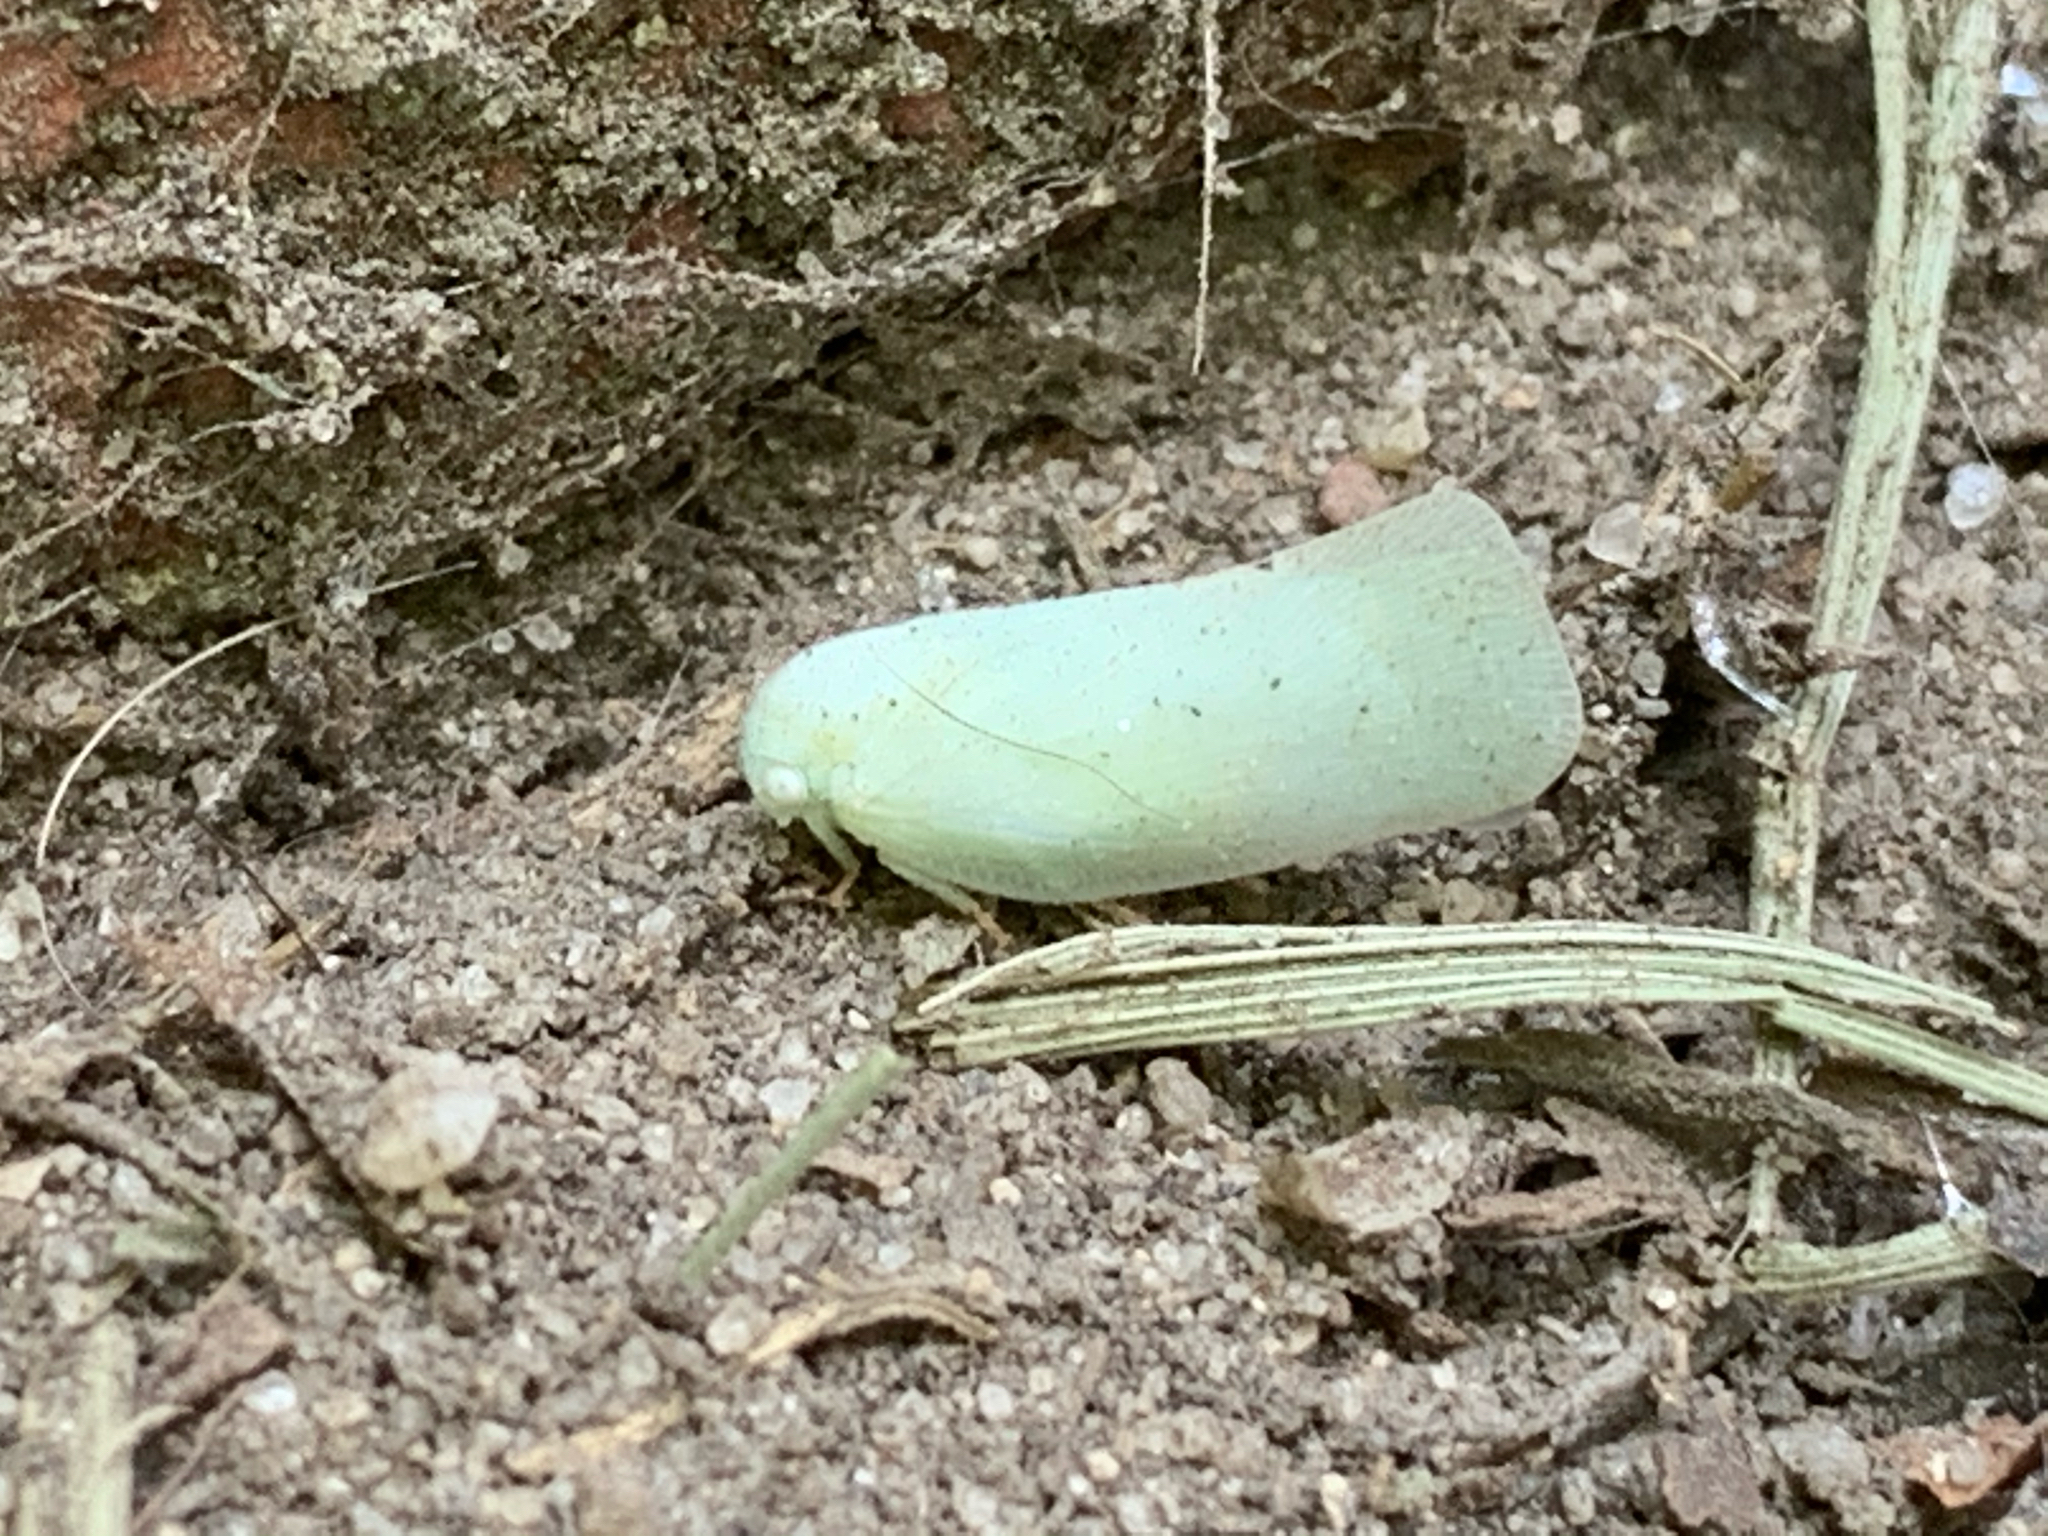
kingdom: Animalia
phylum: Arthropoda
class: Insecta
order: Hemiptera
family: Flatidae
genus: Flatormenis
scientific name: Flatormenis proxima
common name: Northern flatid planthopper
